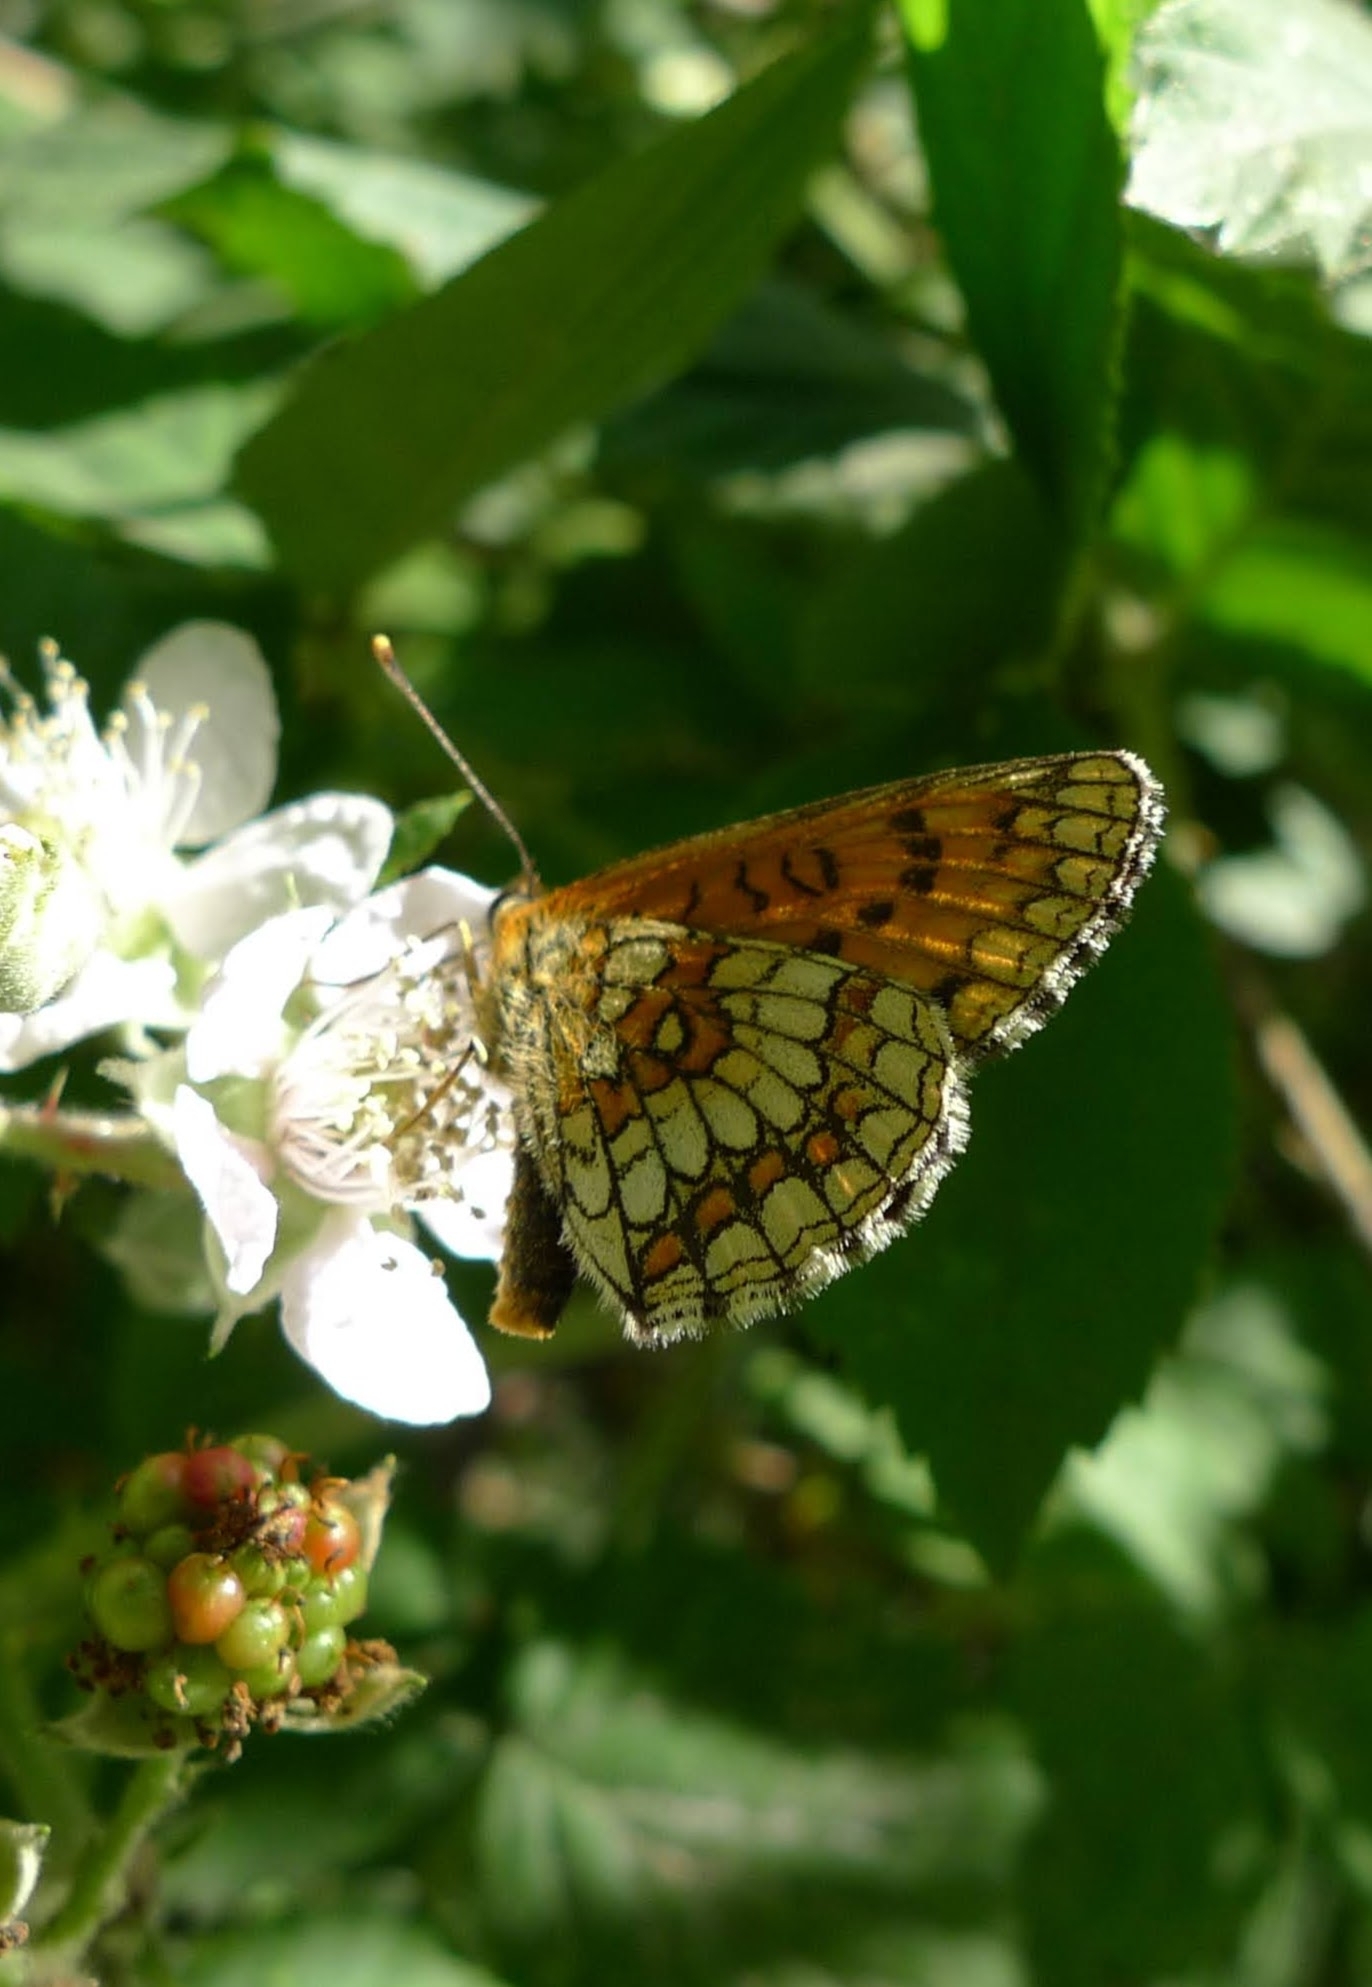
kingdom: Animalia
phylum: Arthropoda
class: Insecta
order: Lepidoptera
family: Nymphalidae
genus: Melitaea
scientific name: Melitaea athalia
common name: Heath fritillary
